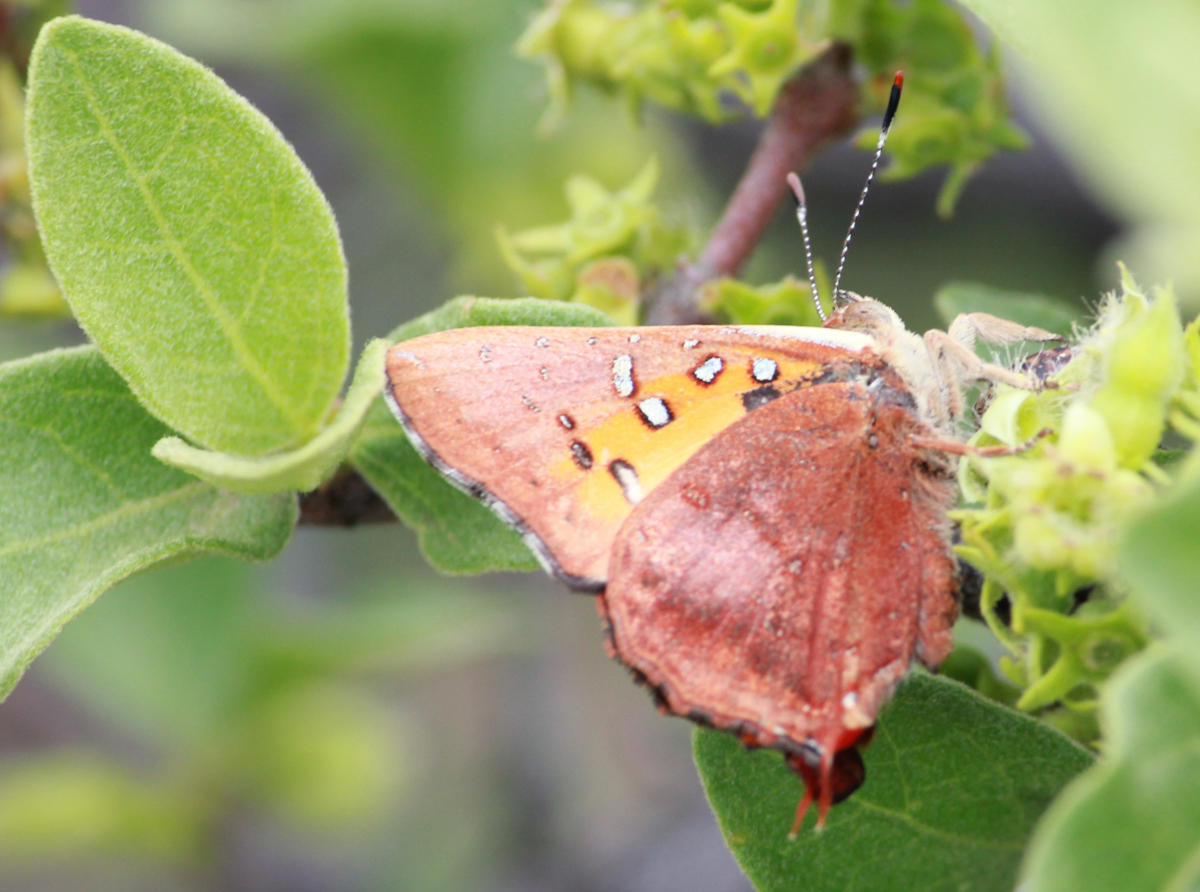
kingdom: Animalia
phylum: Arthropoda
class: Insecta
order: Lepidoptera
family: Lycaenidae
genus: Axiocerses
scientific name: Axiocerses perion
